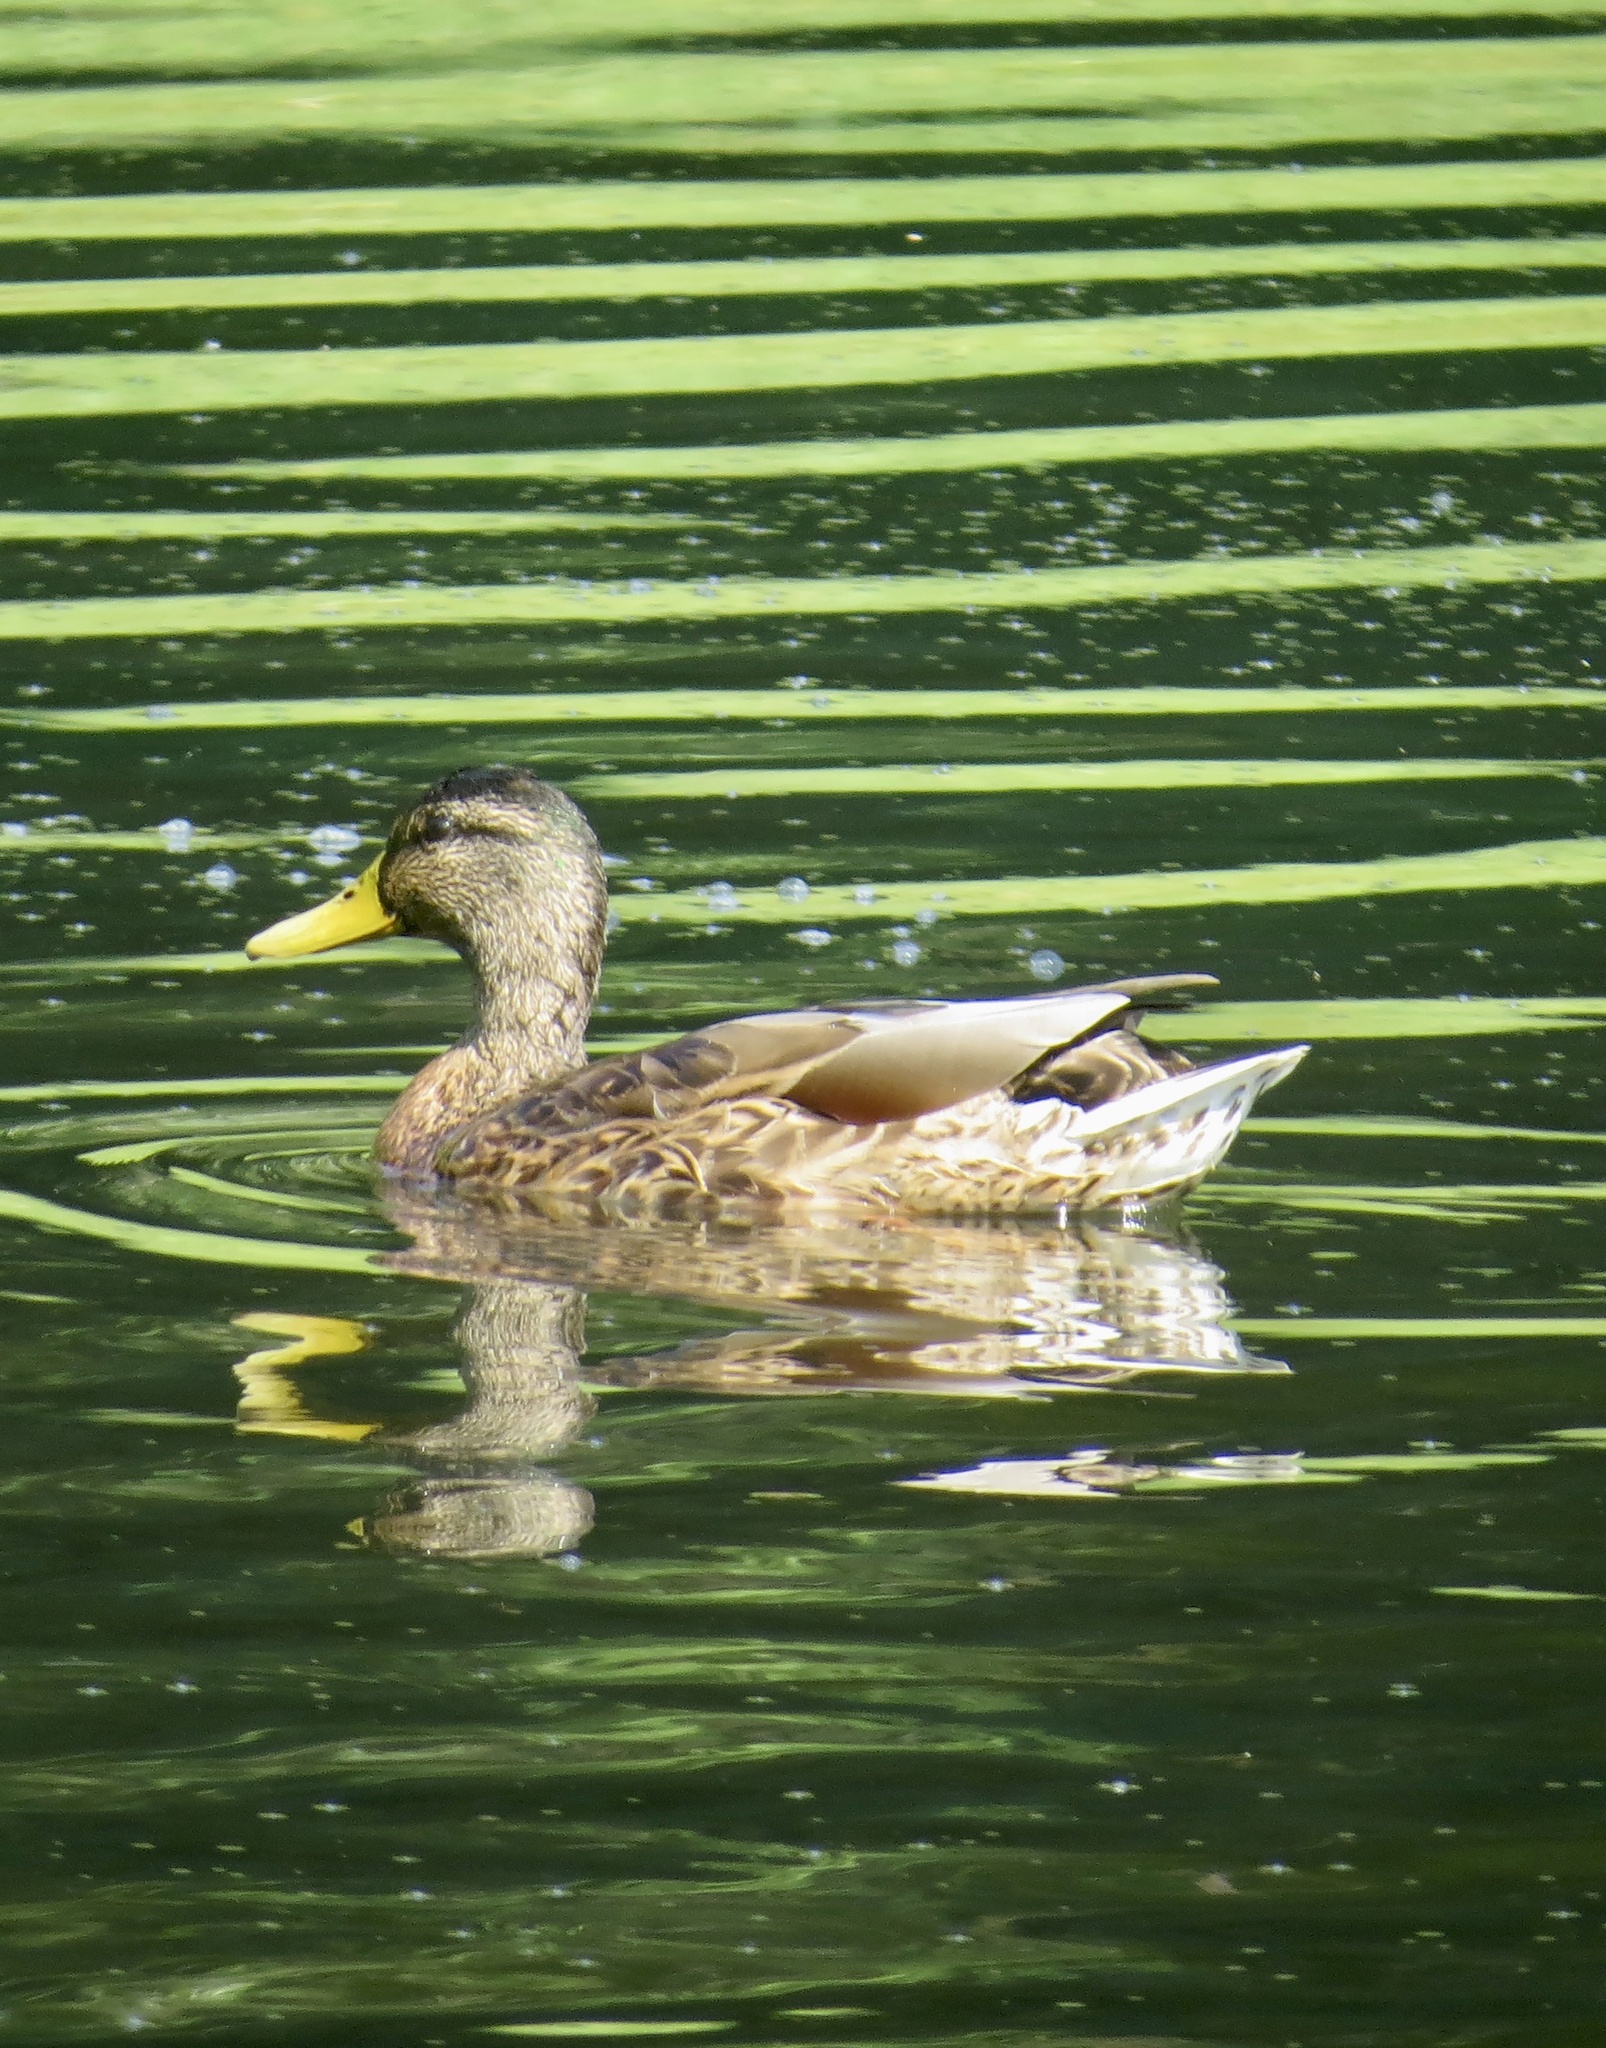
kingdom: Animalia
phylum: Chordata
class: Aves
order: Anseriformes
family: Anatidae
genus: Anas
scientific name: Anas platyrhynchos
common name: Mallard
